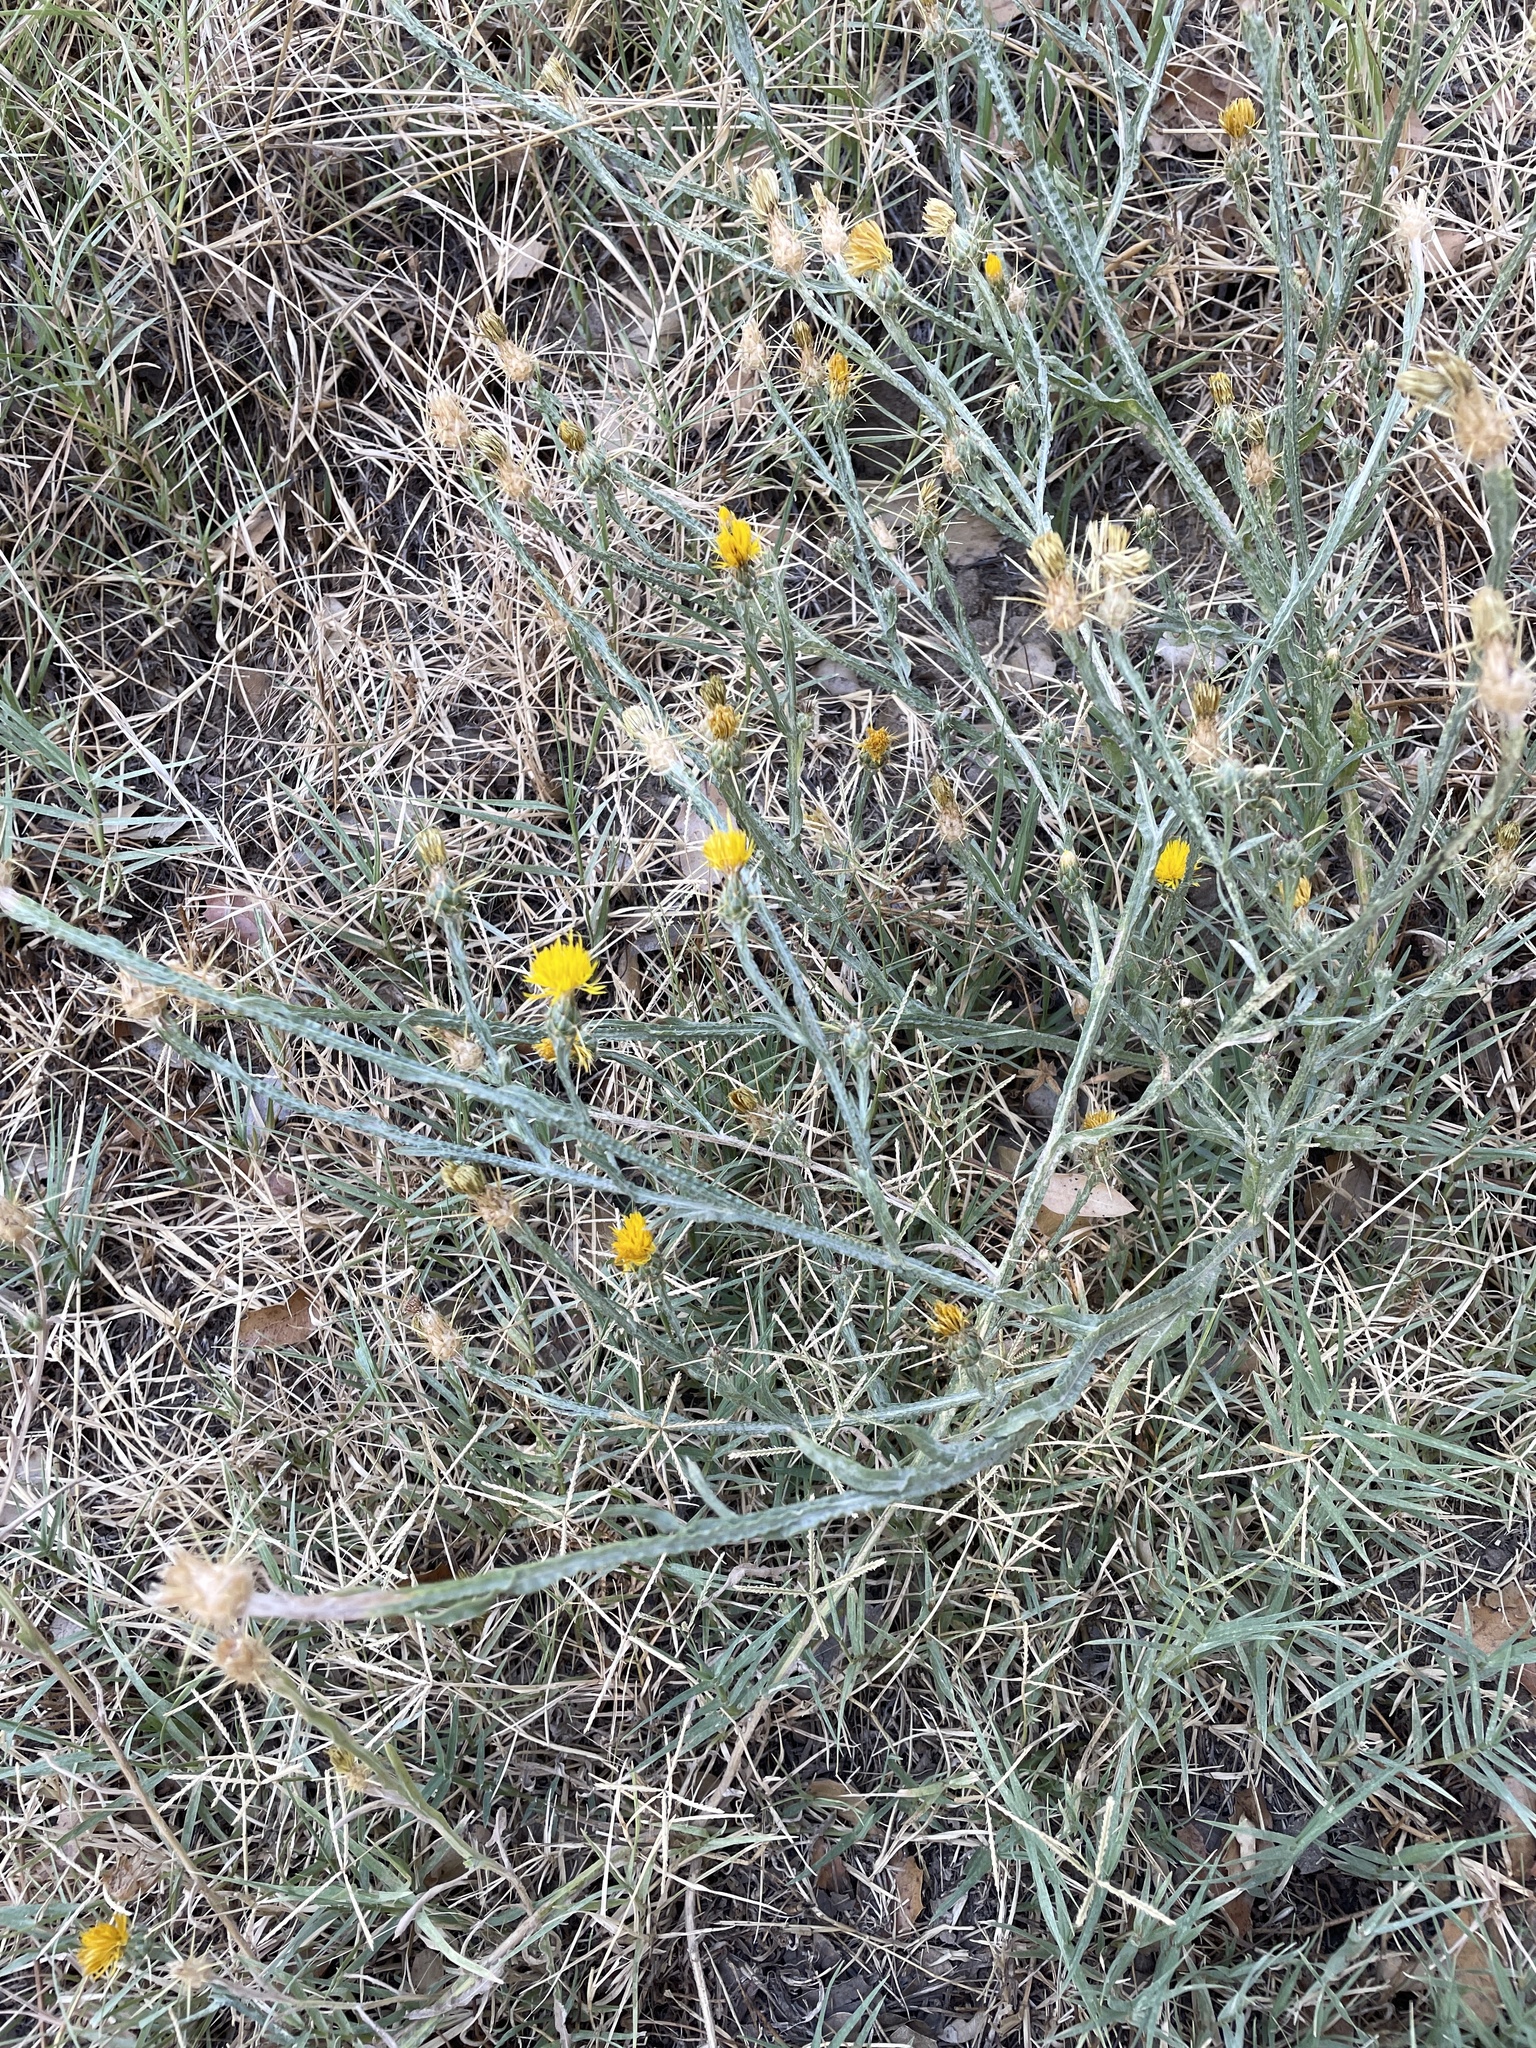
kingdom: Plantae
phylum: Tracheophyta
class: Magnoliopsida
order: Asterales
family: Asteraceae
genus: Centaurea
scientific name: Centaurea solstitialis
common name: Yellow star-thistle
